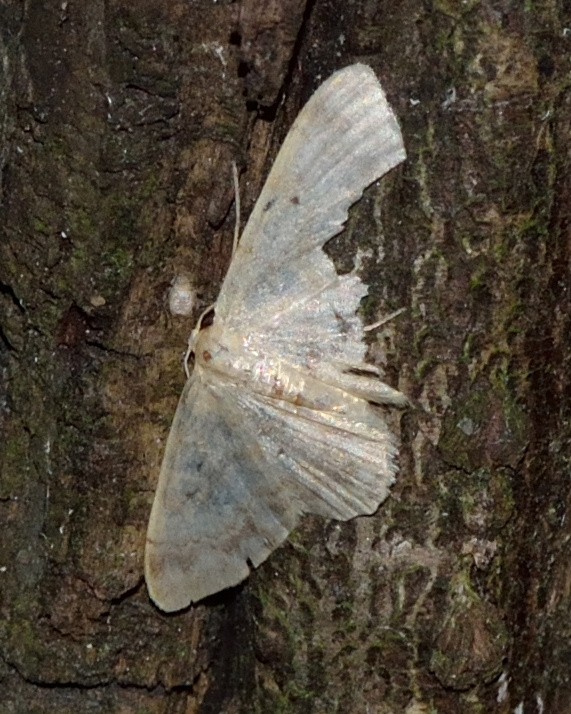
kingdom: Animalia
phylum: Arthropoda
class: Insecta
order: Lepidoptera
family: Geometridae
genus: Idaea
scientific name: Idaea biselata
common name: Small fan-footed wave
